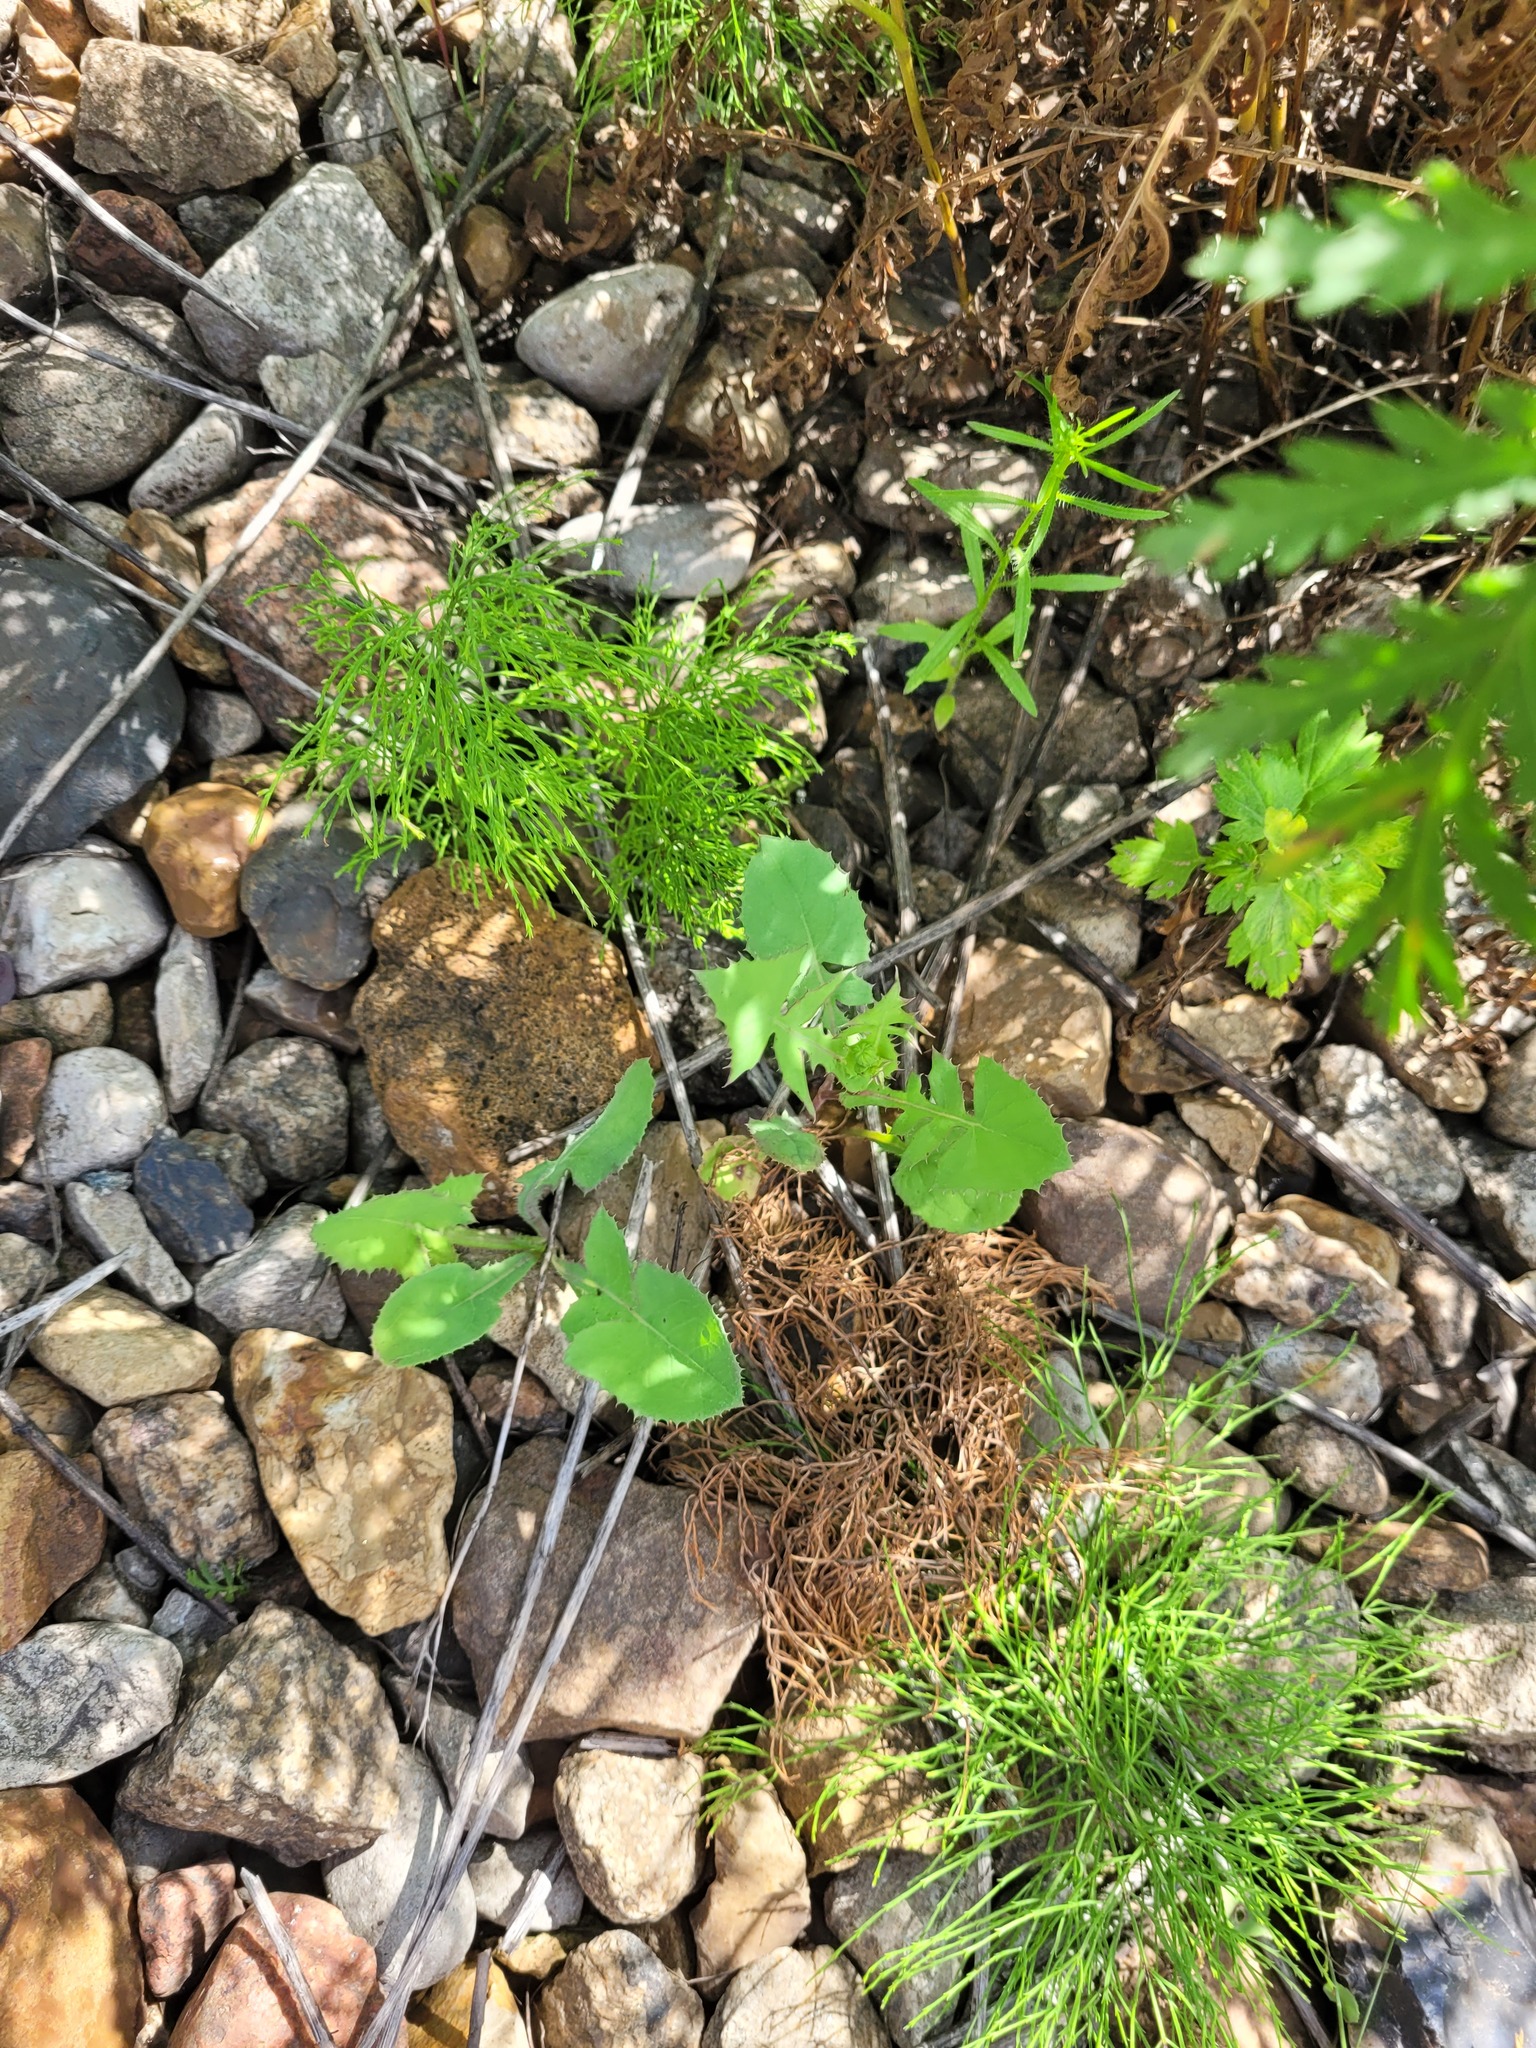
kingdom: Plantae
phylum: Tracheophyta
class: Magnoliopsida
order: Asterales
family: Asteraceae
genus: Sonchus
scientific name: Sonchus oleraceus
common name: Common sowthistle
